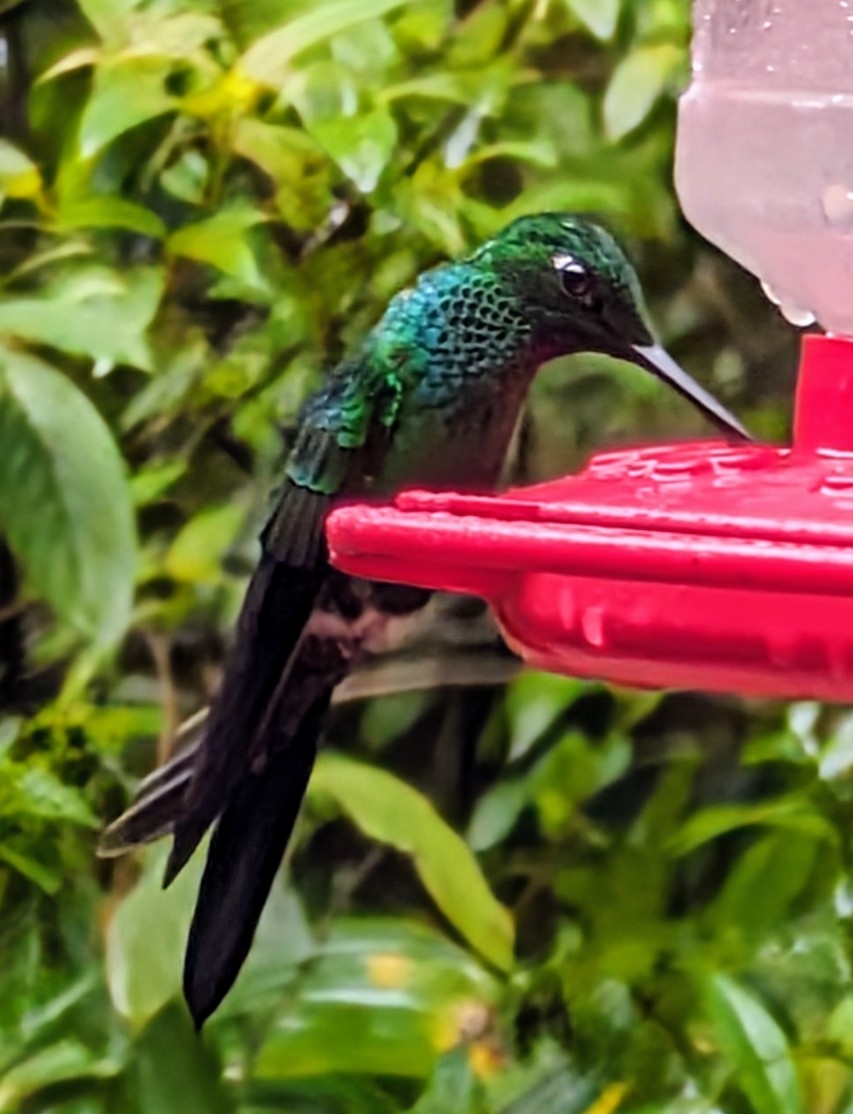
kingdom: Animalia
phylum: Chordata
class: Aves
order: Apodiformes
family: Trochilidae
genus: Heliodoxa
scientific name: Heliodoxa jacula
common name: Green-crowned brilliant
